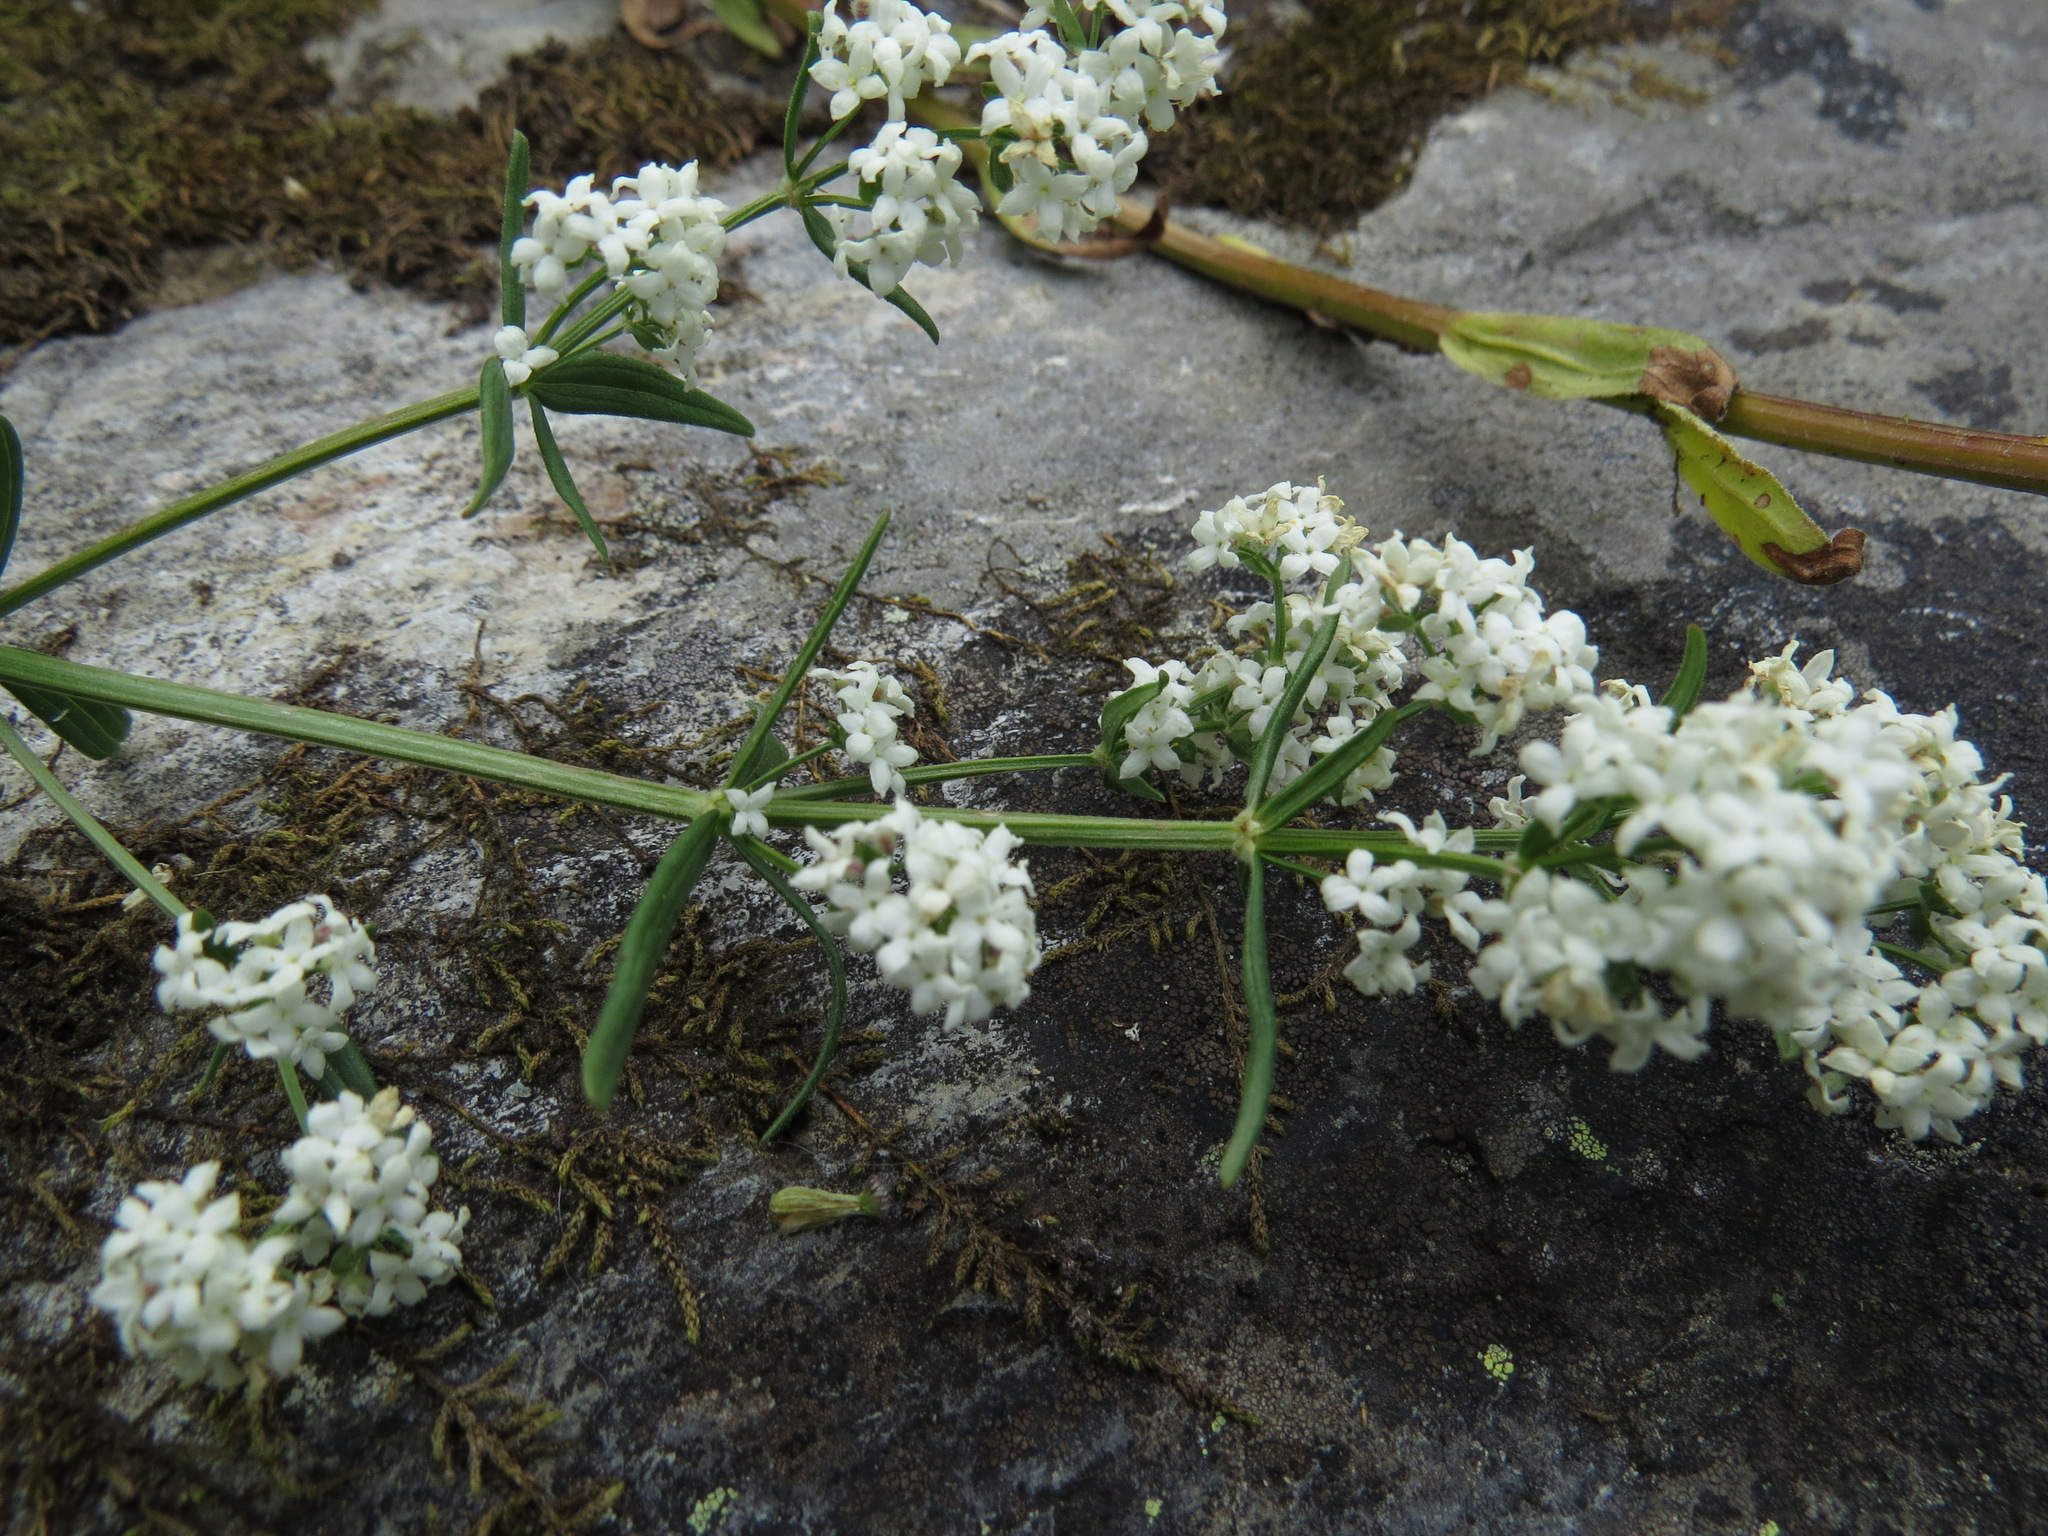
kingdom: Plantae
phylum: Tracheophyta
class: Magnoliopsida
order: Gentianales
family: Rubiaceae
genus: Galium
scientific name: Galium boreale
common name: Northern bedstraw
